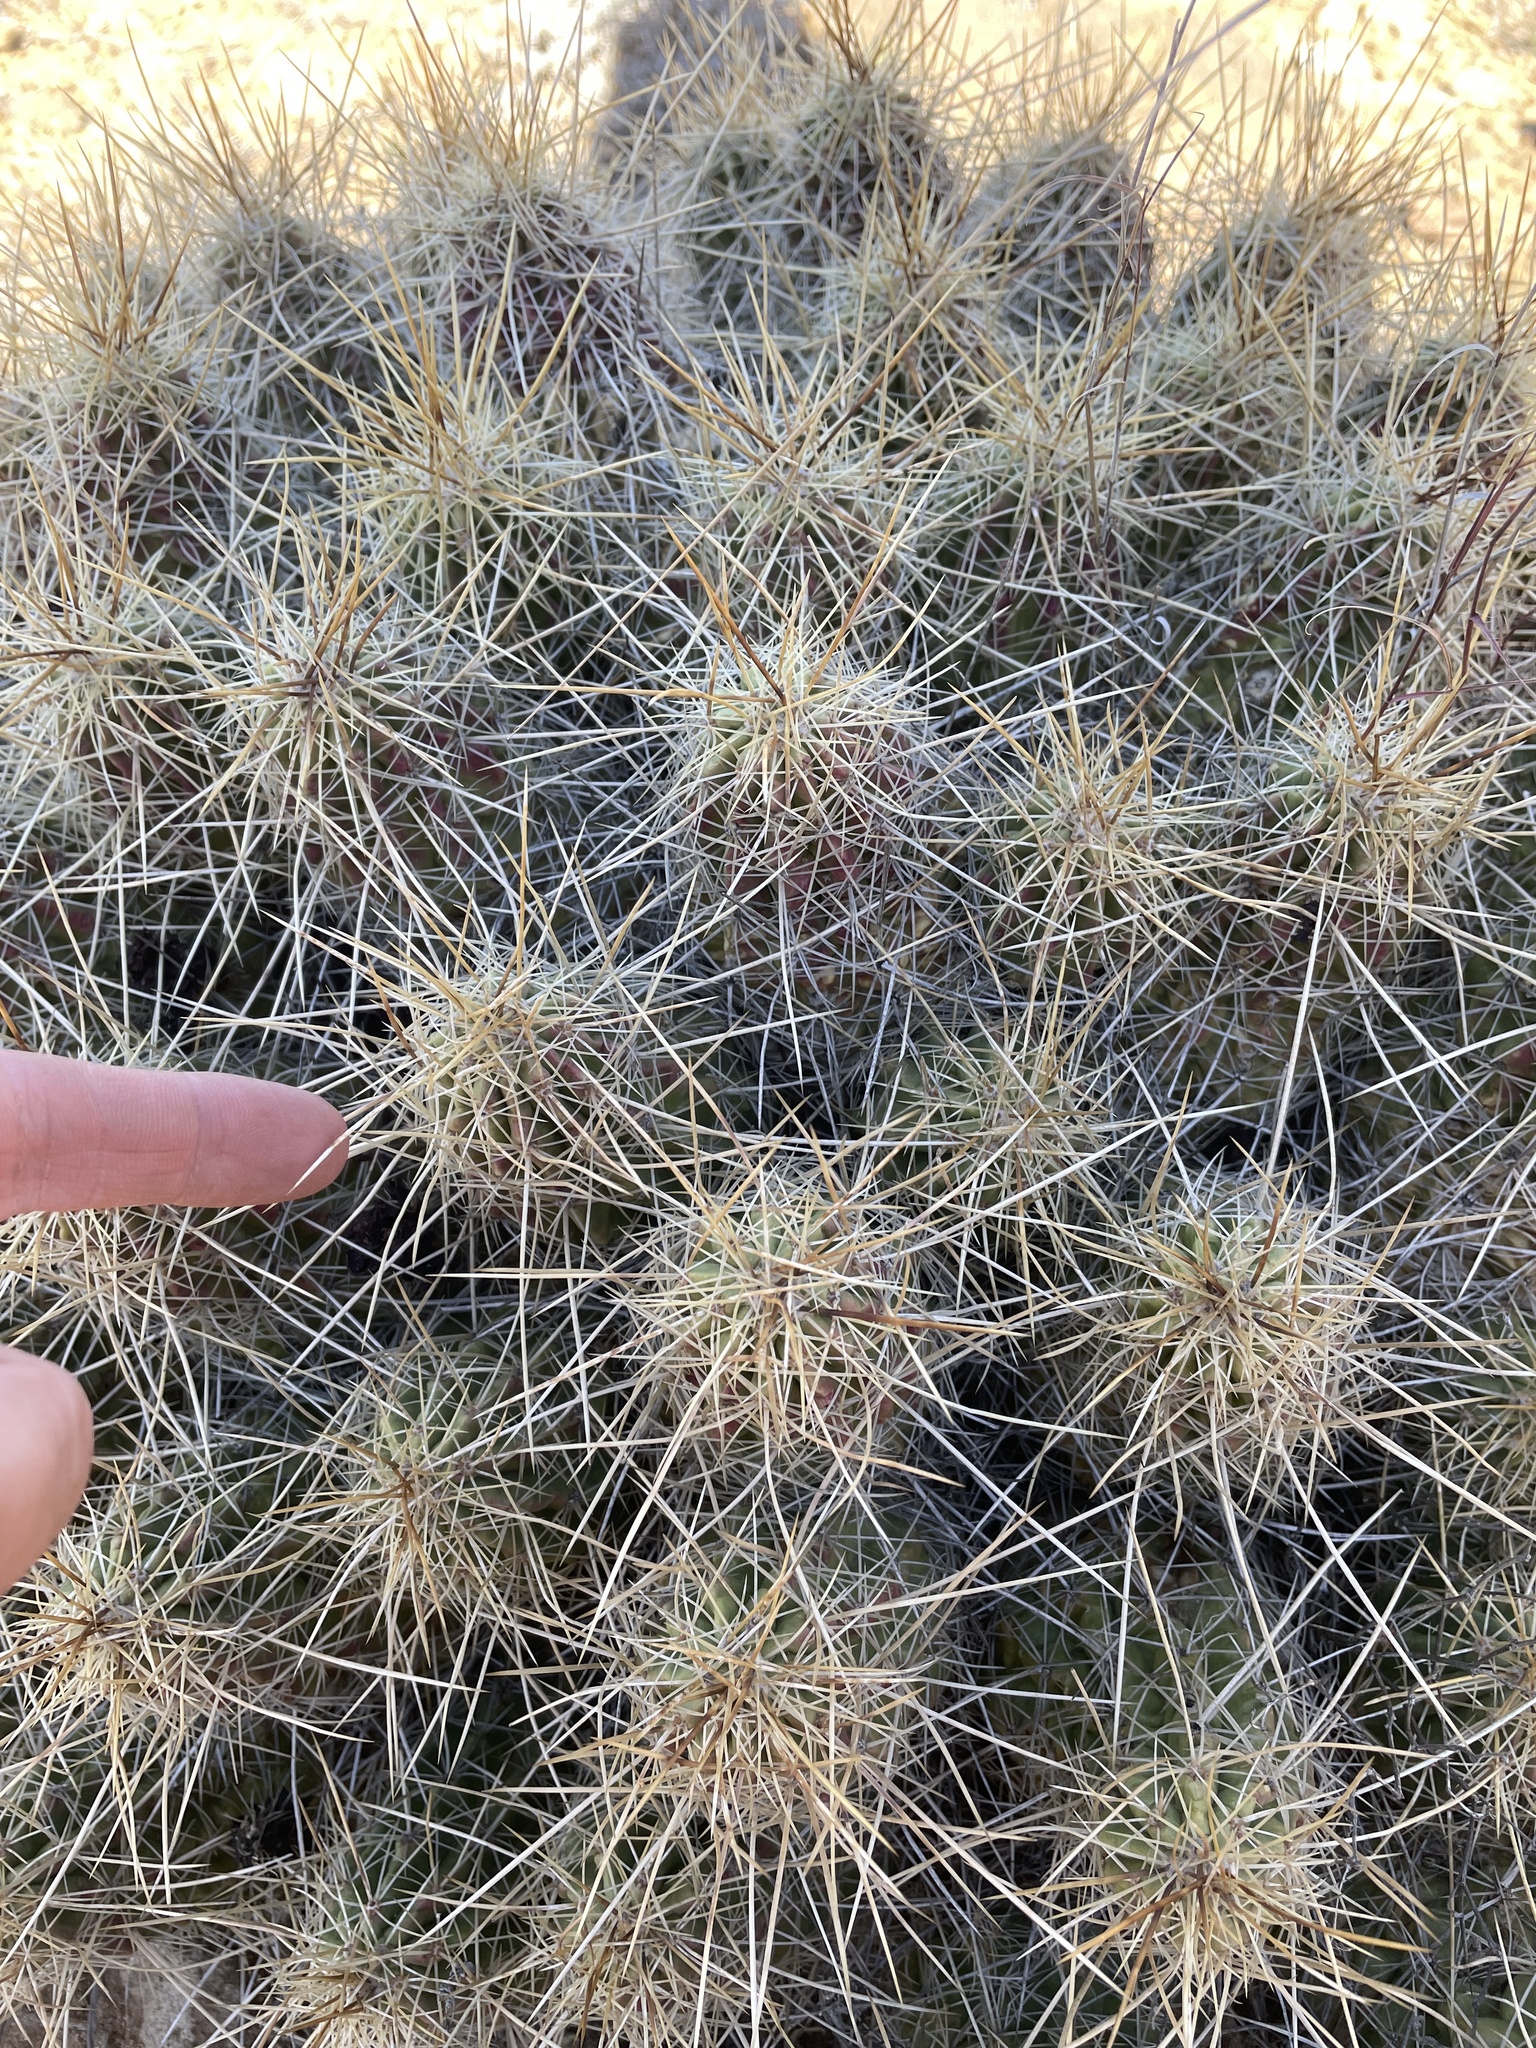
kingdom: Plantae
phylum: Tracheophyta
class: Magnoliopsida
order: Caryophyllales
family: Cactaceae
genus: Echinocereus
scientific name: Echinocereus stramineus
